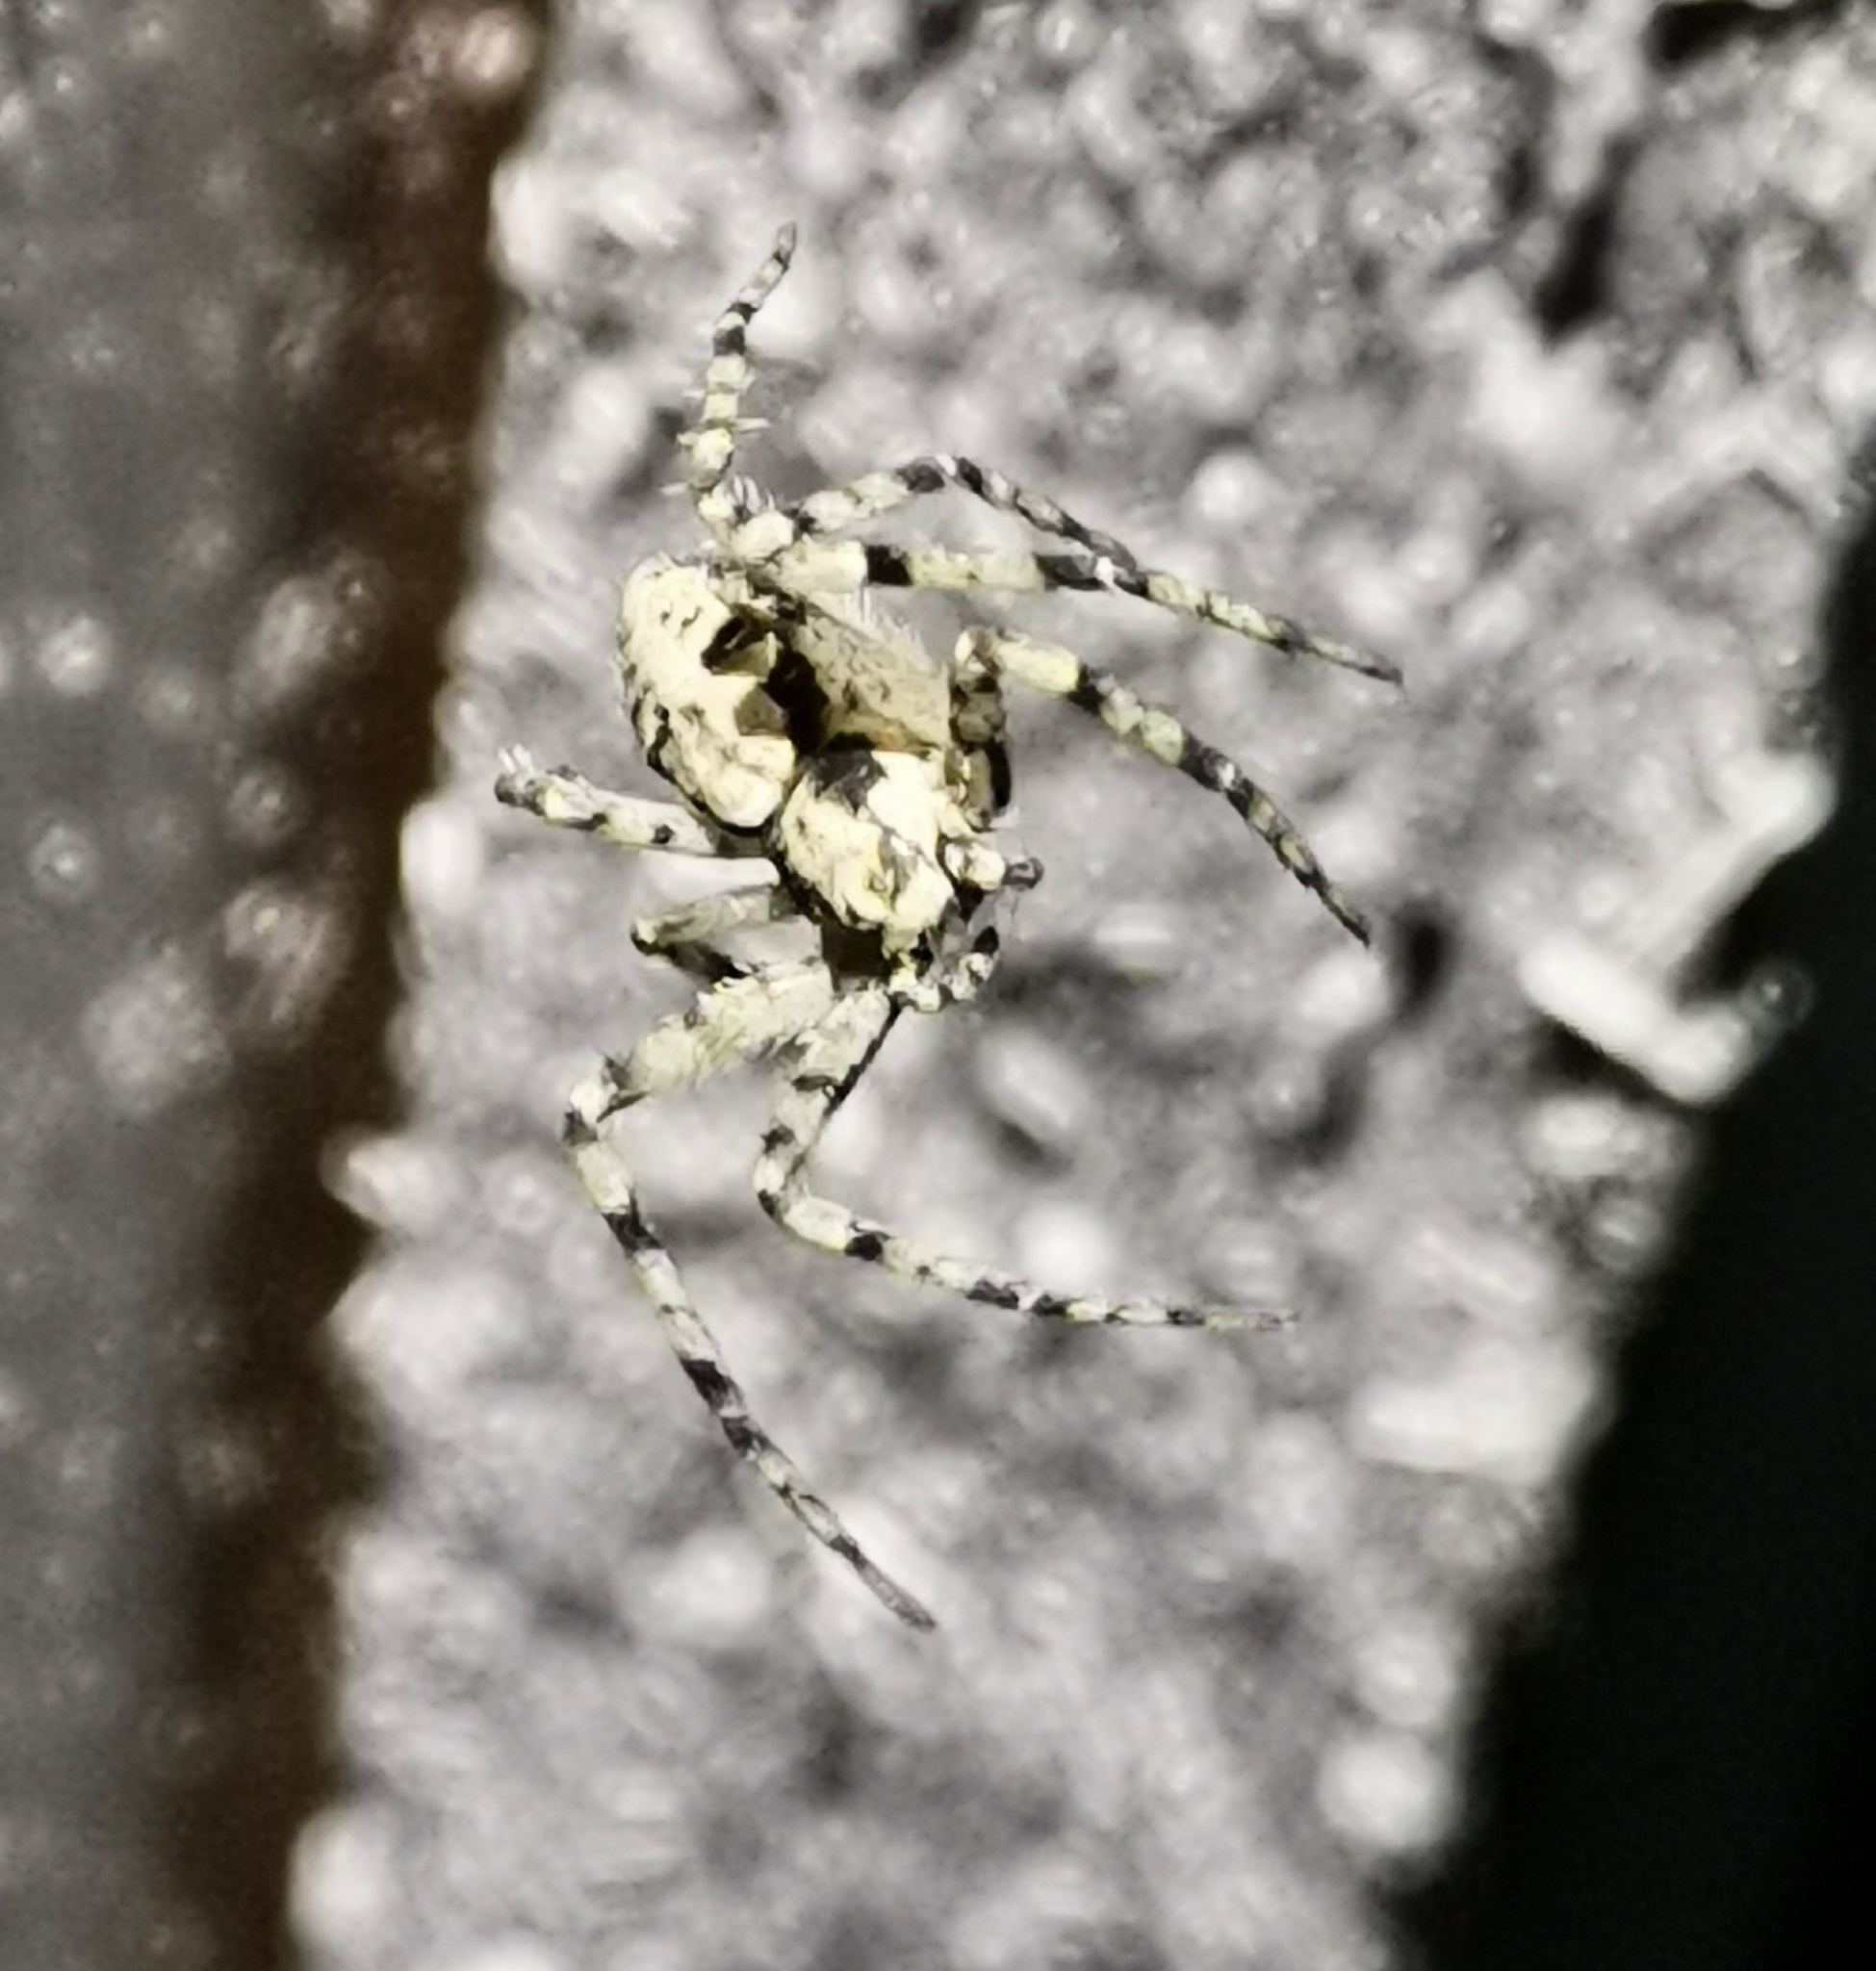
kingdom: Animalia
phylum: Arthropoda
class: Arachnida
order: Araneae
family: Philodromidae
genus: Philodromus
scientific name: Philodromus margaritatus
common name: Lichen running-spider
